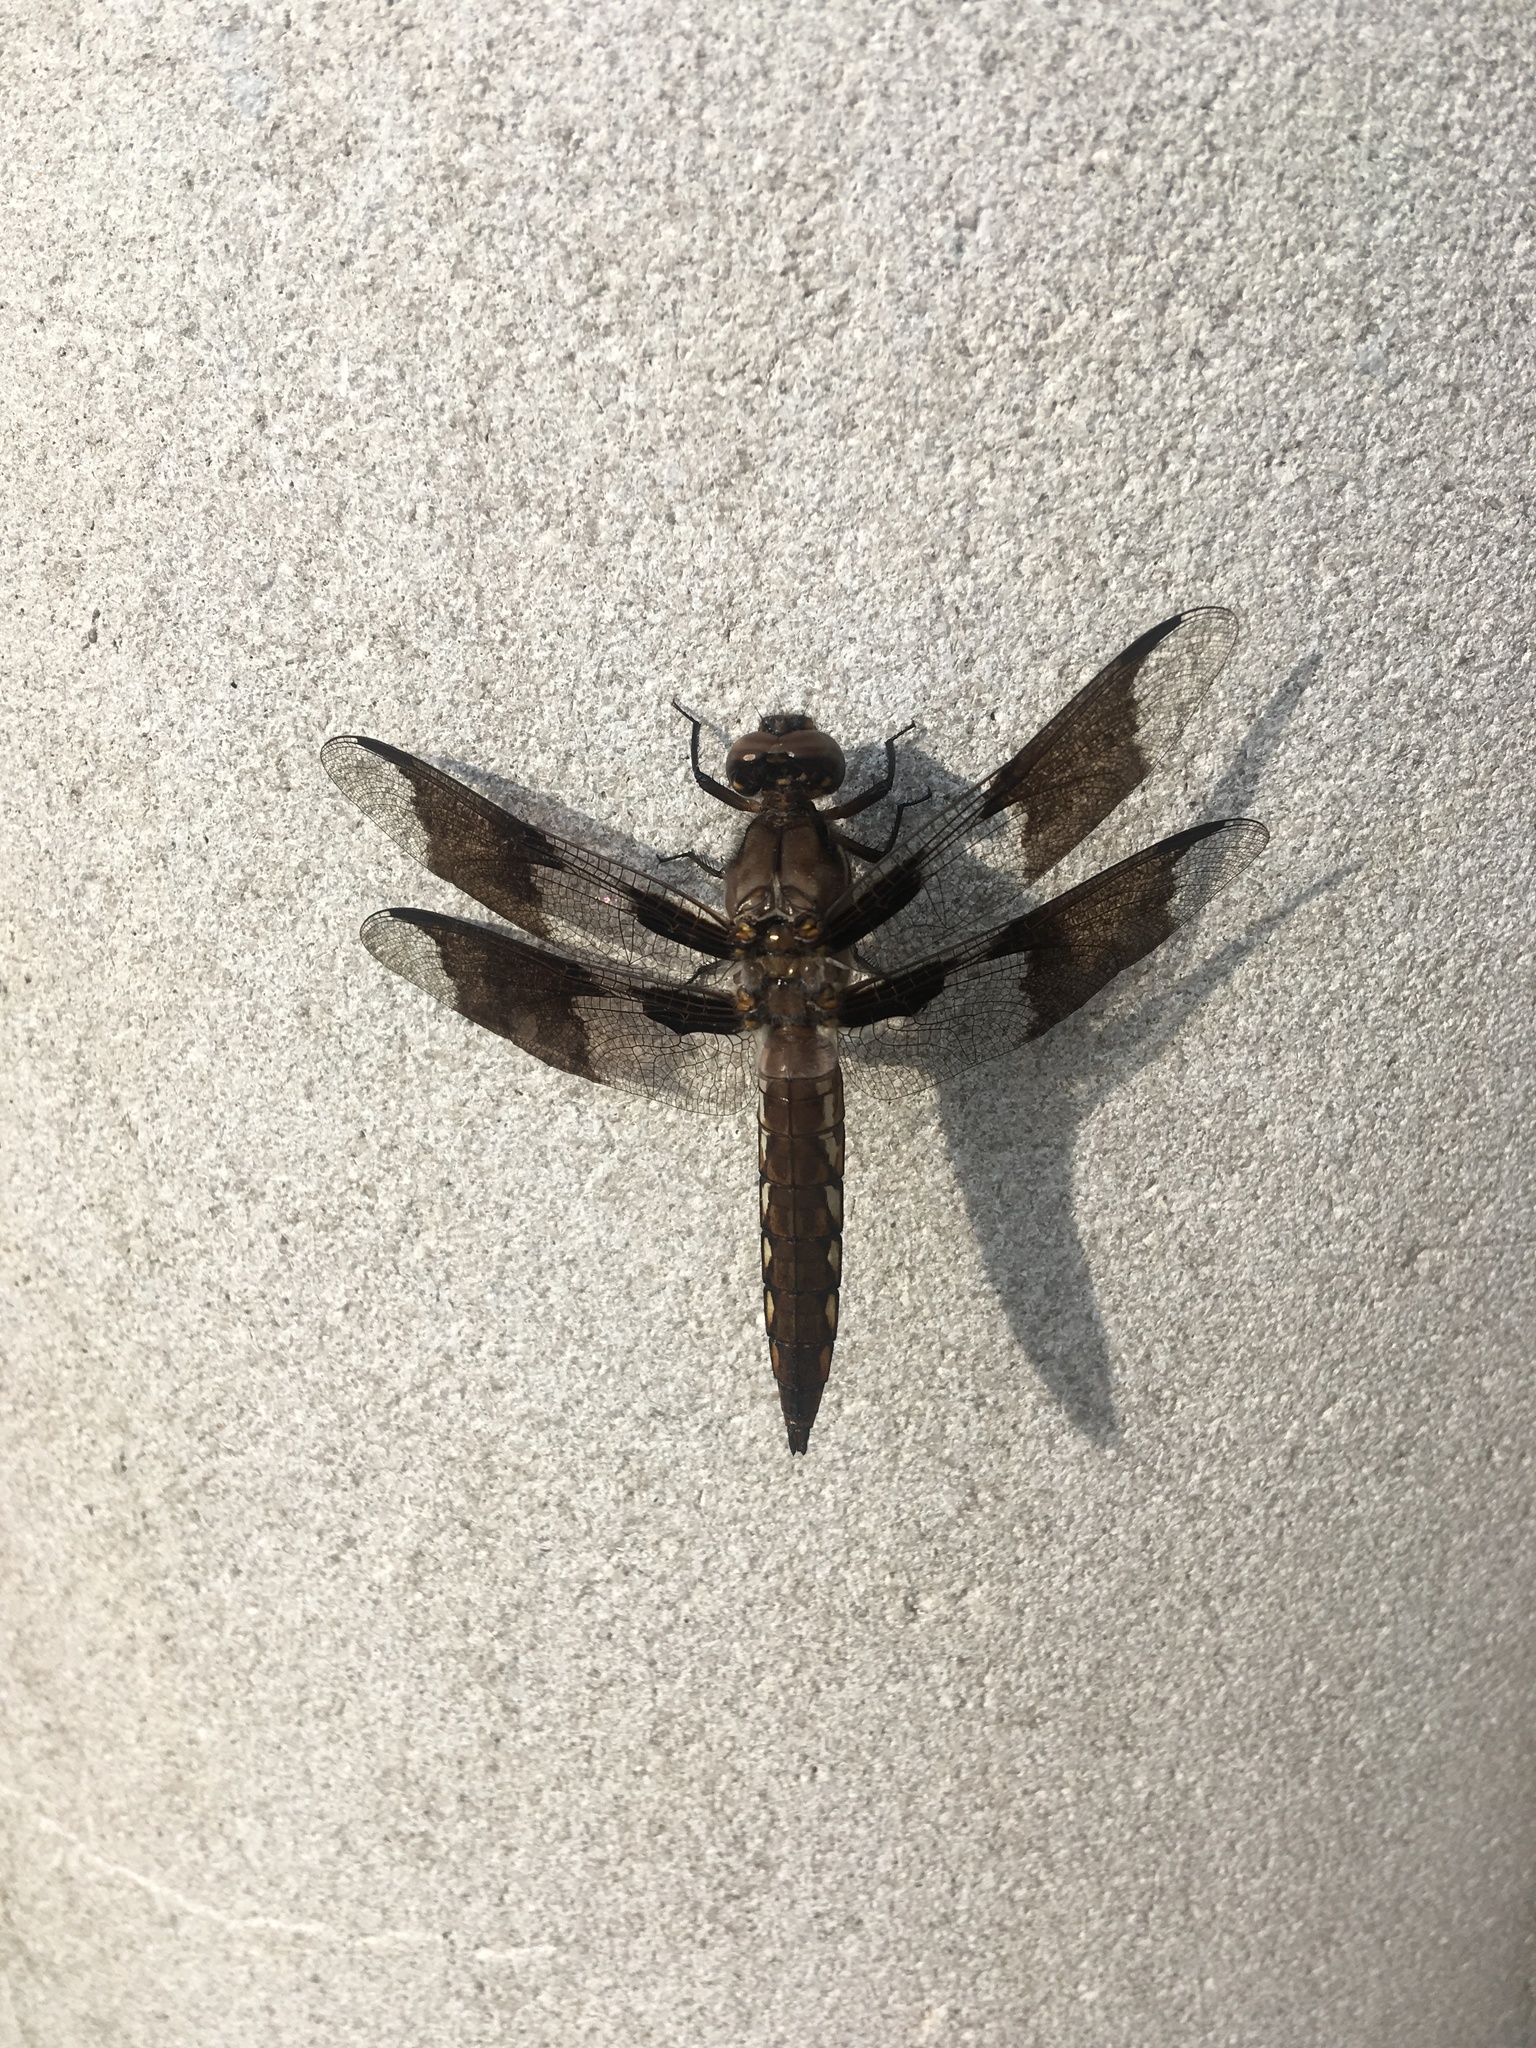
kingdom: Animalia
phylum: Arthropoda
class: Insecta
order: Odonata
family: Libellulidae
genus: Plathemis
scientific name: Plathemis lydia
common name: Common whitetail
